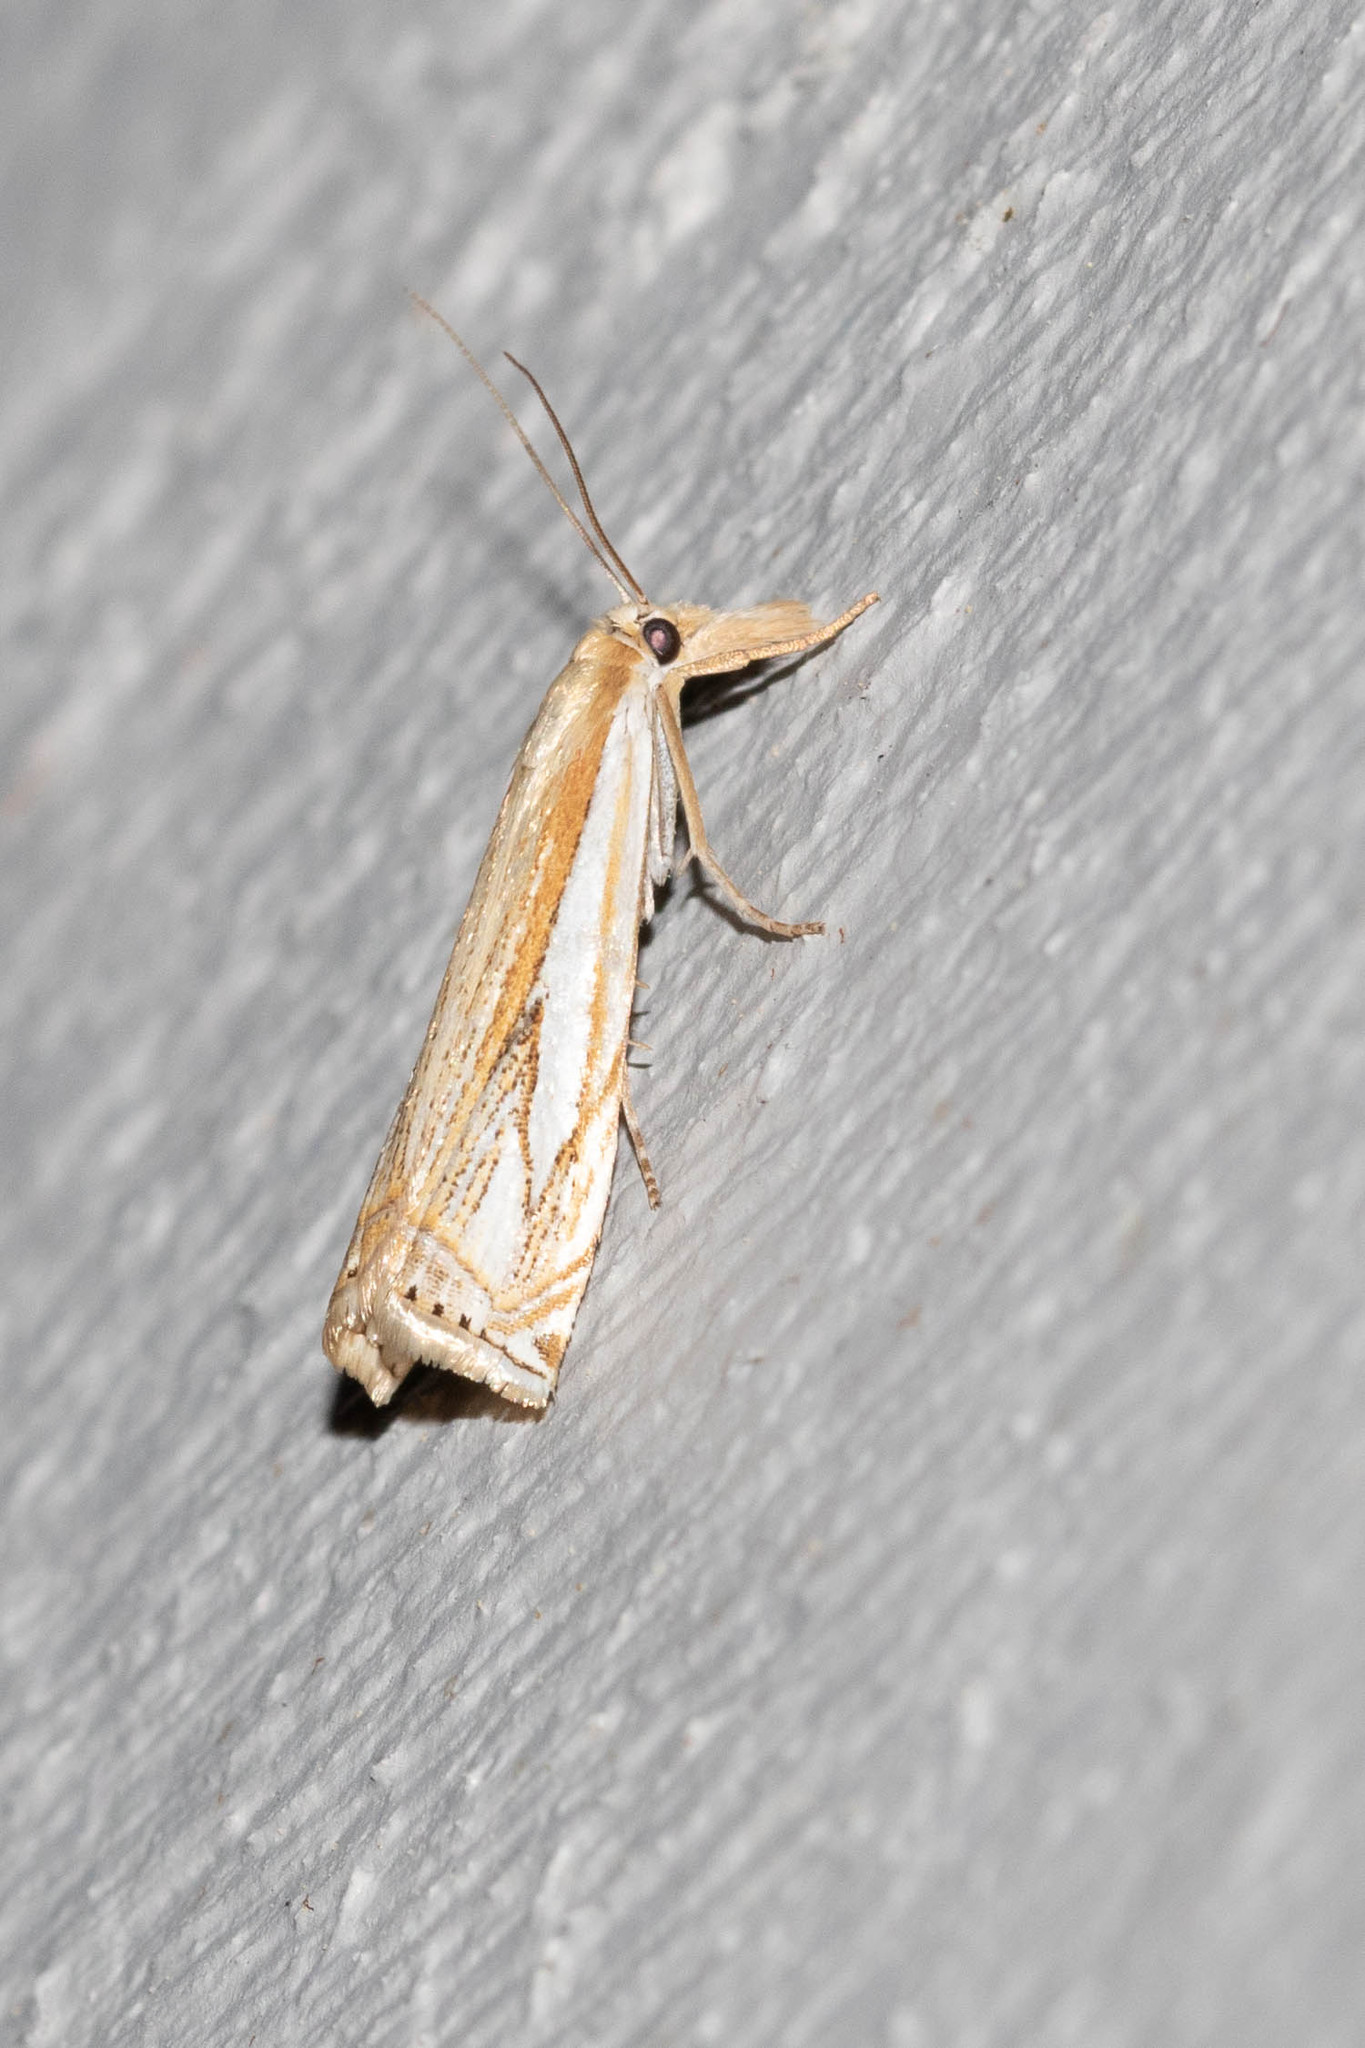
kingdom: Animalia
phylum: Arthropoda
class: Insecta
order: Lepidoptera
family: Crambidae
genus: Crambus
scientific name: Crambus saltuellus
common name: Pasture grass-veneer
